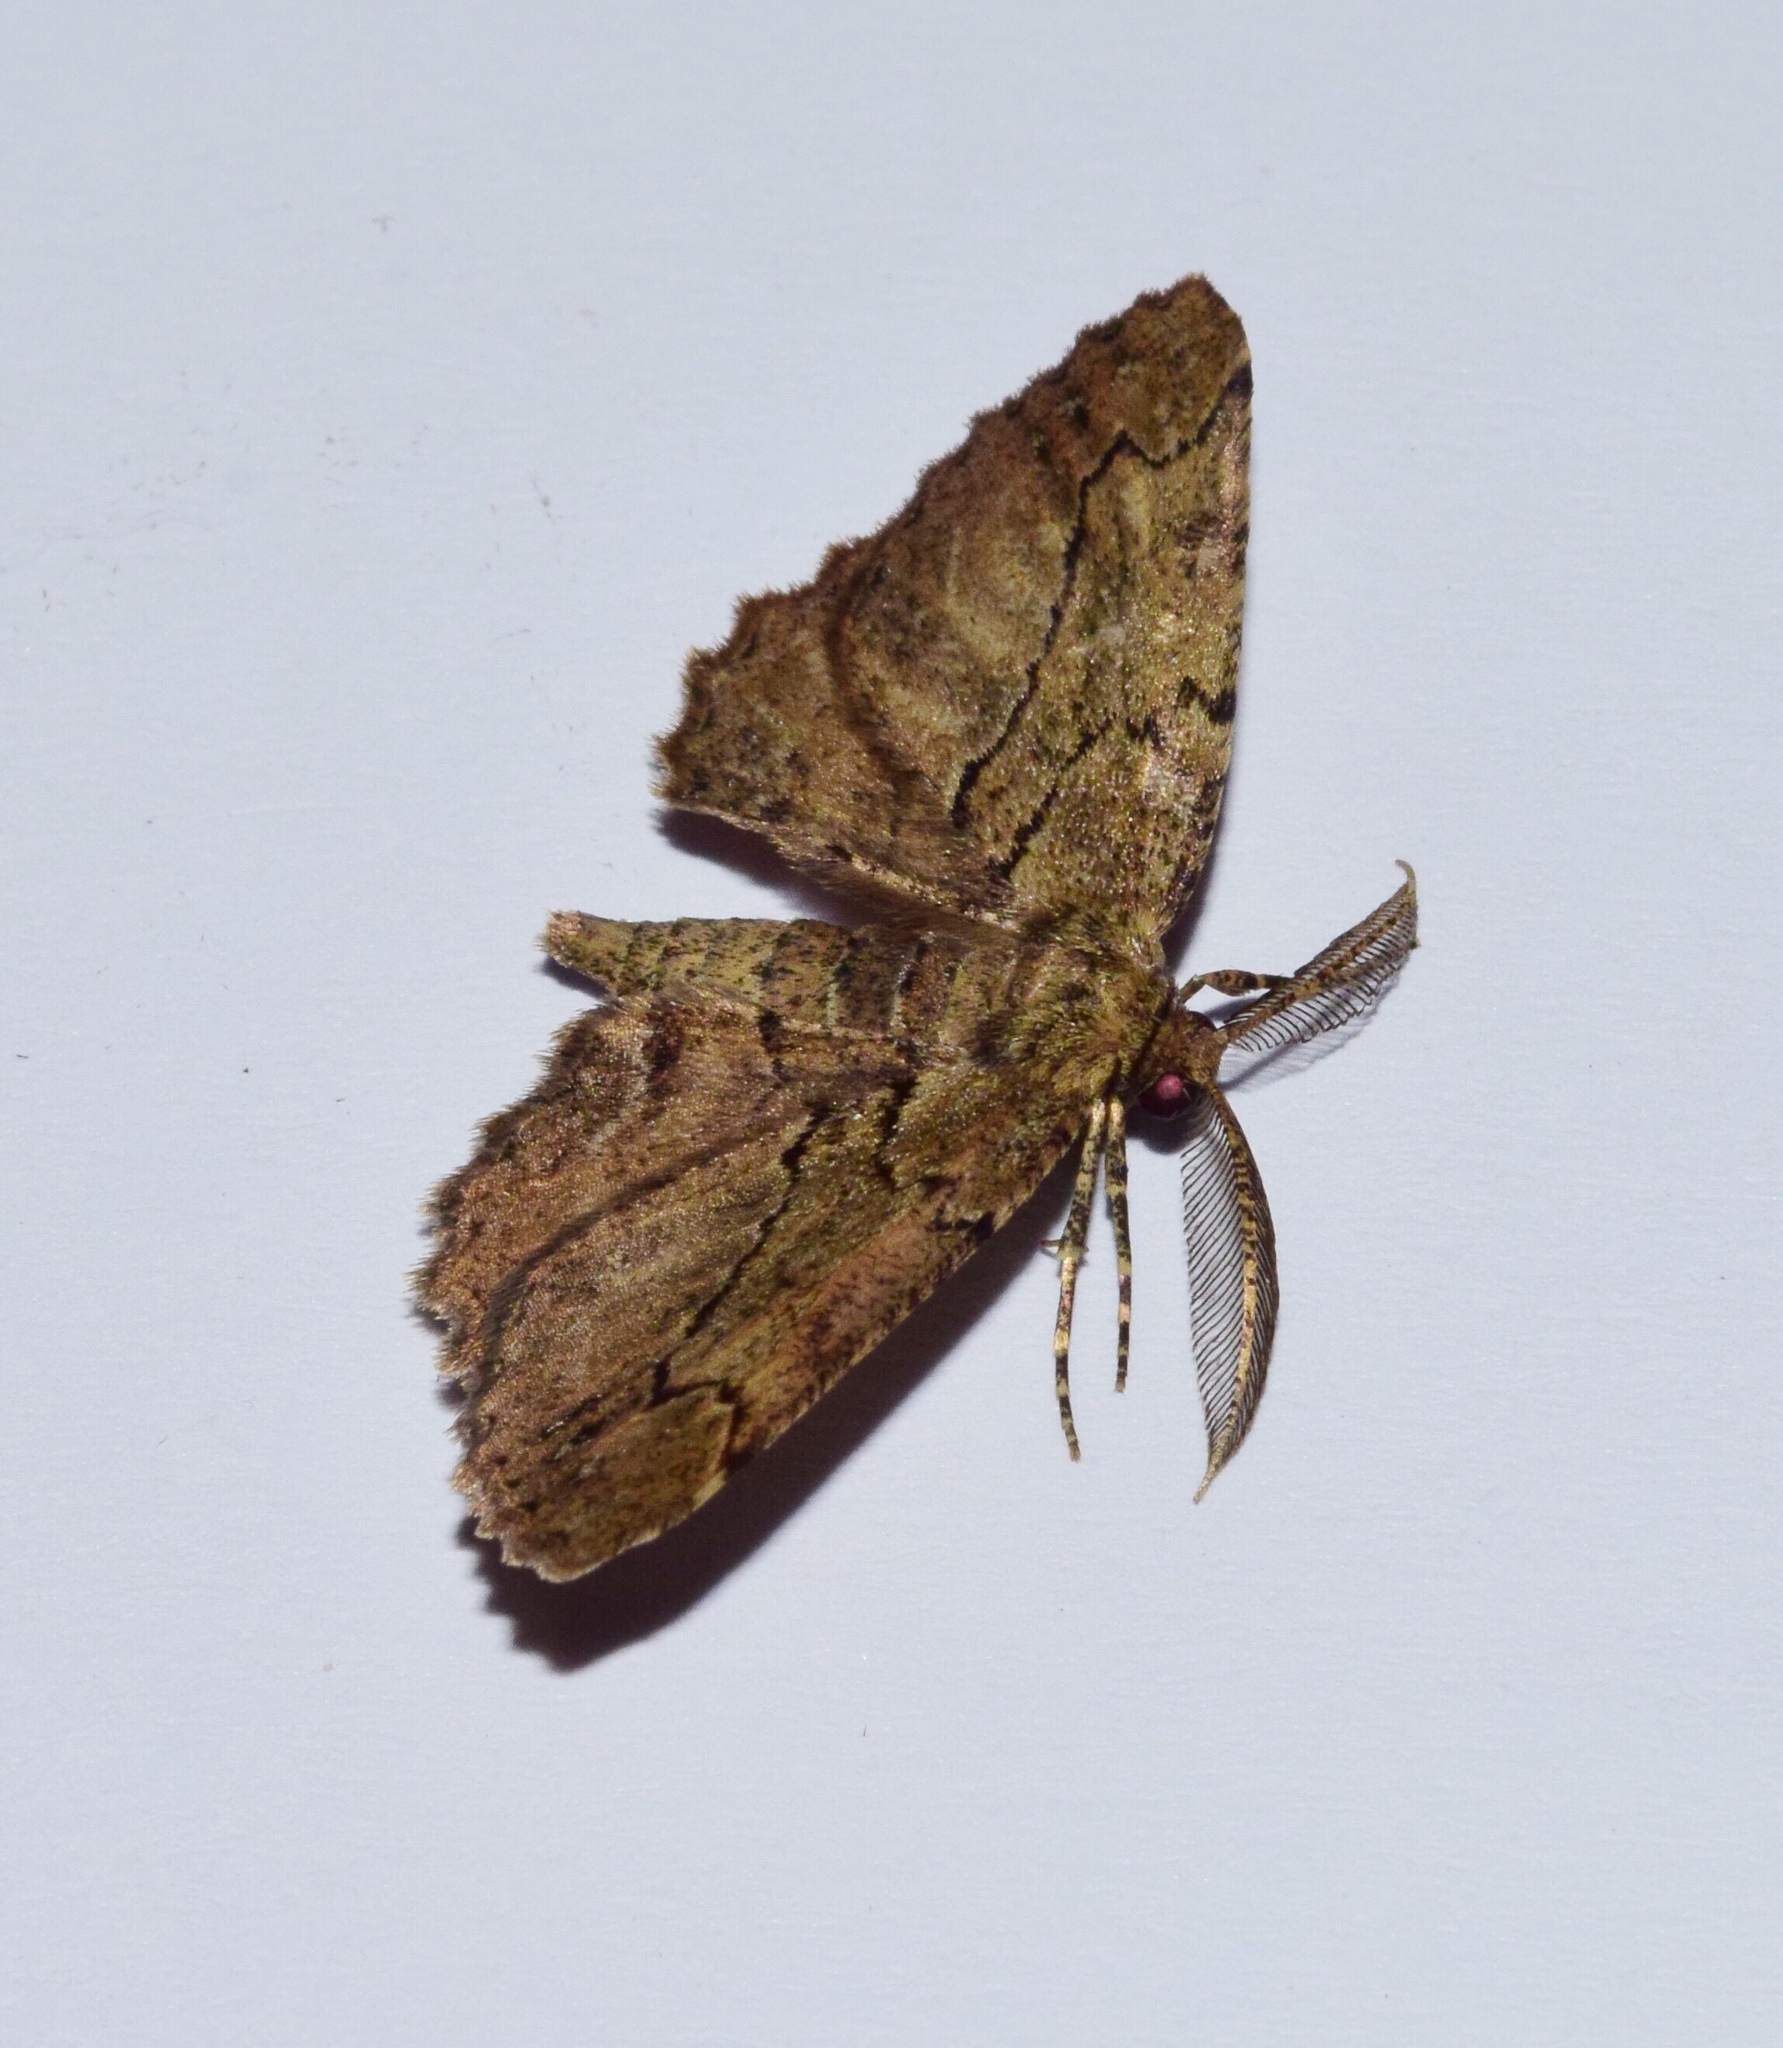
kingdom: Animalia
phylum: Arthropoda
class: Insecta
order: Lepidoptera
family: Geometridae
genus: Menophra
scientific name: Menophra serrataria
